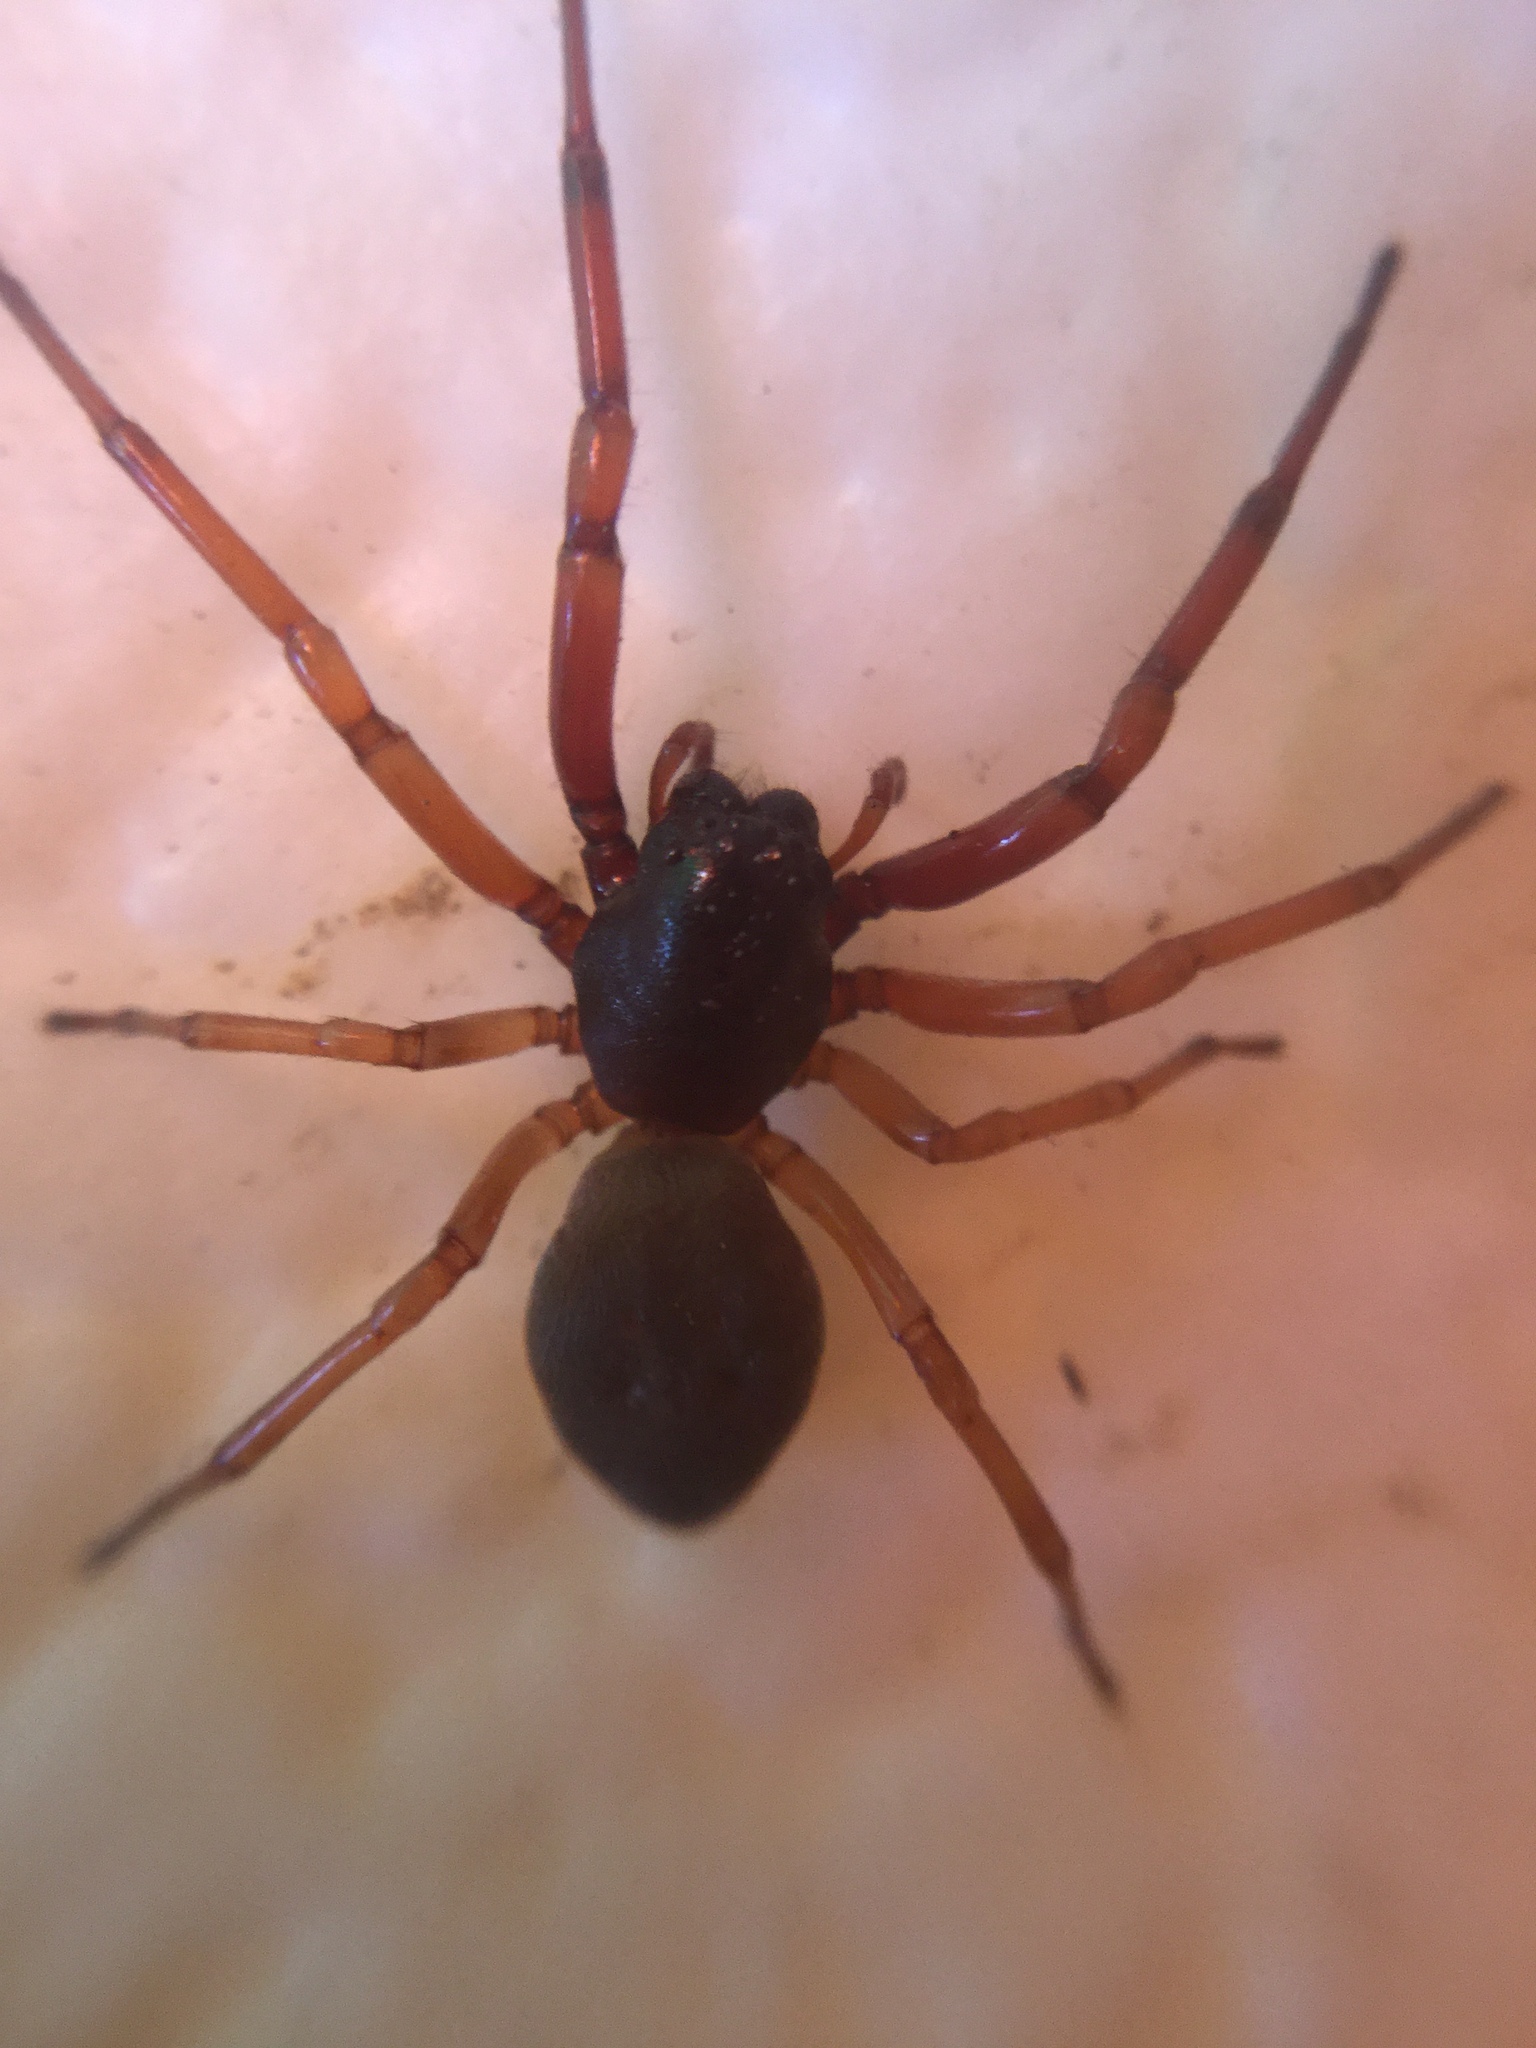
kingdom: Animalia
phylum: Arthropoda
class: Arachnida
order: Araneae
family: Trachelidae
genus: Trachelas
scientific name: Trachelas tranquillus
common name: Broad-faced sac spider
